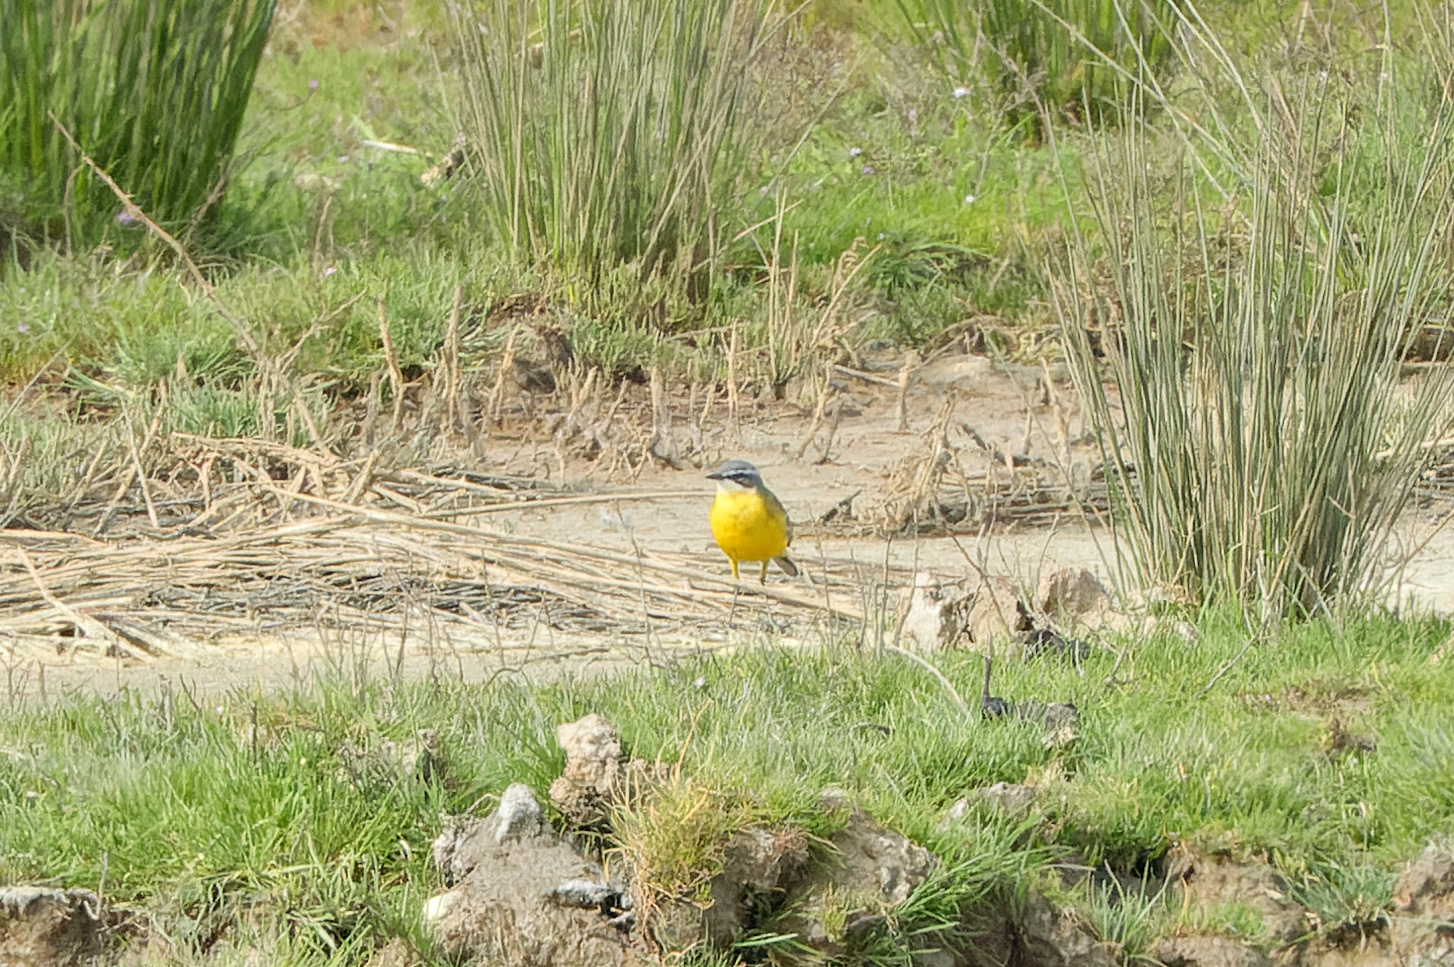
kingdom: Animalia
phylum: Chordata
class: Aves
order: Passeriformes
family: Motacillidae
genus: Motacilla
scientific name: Motacilla flava
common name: Western yellow wagtail
